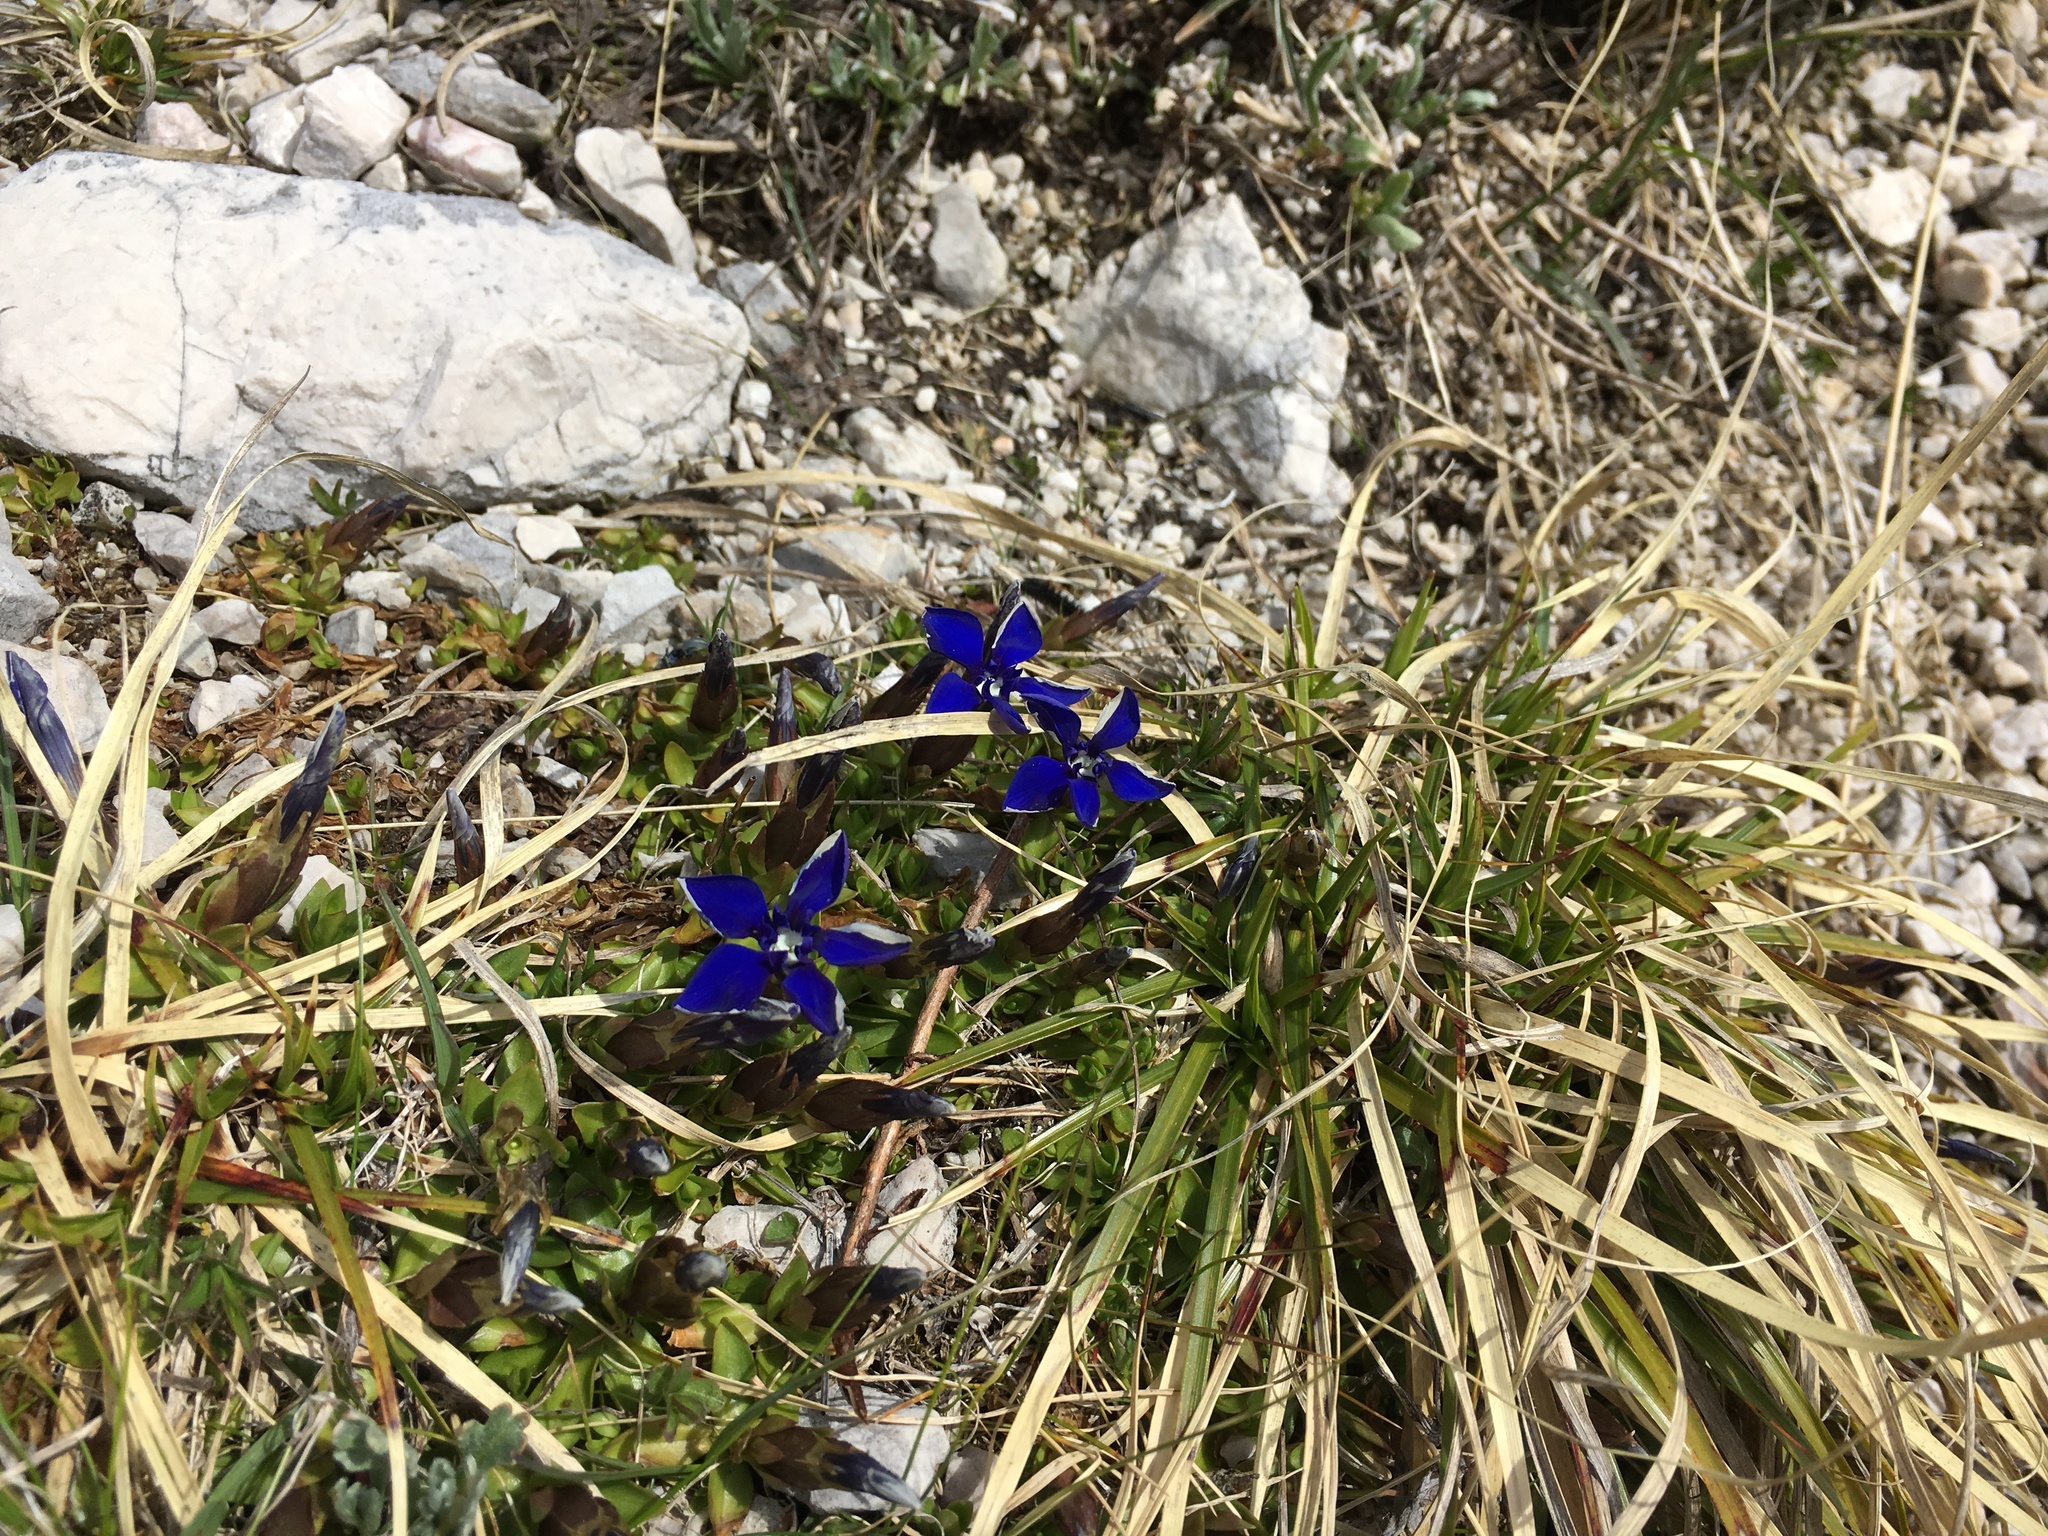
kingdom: Plantae
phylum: Tracheophyta
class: Magnoliopsida
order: Gentianales
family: Gentianaceae
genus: Gentiana
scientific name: Gentiana verna
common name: Spring gentian
